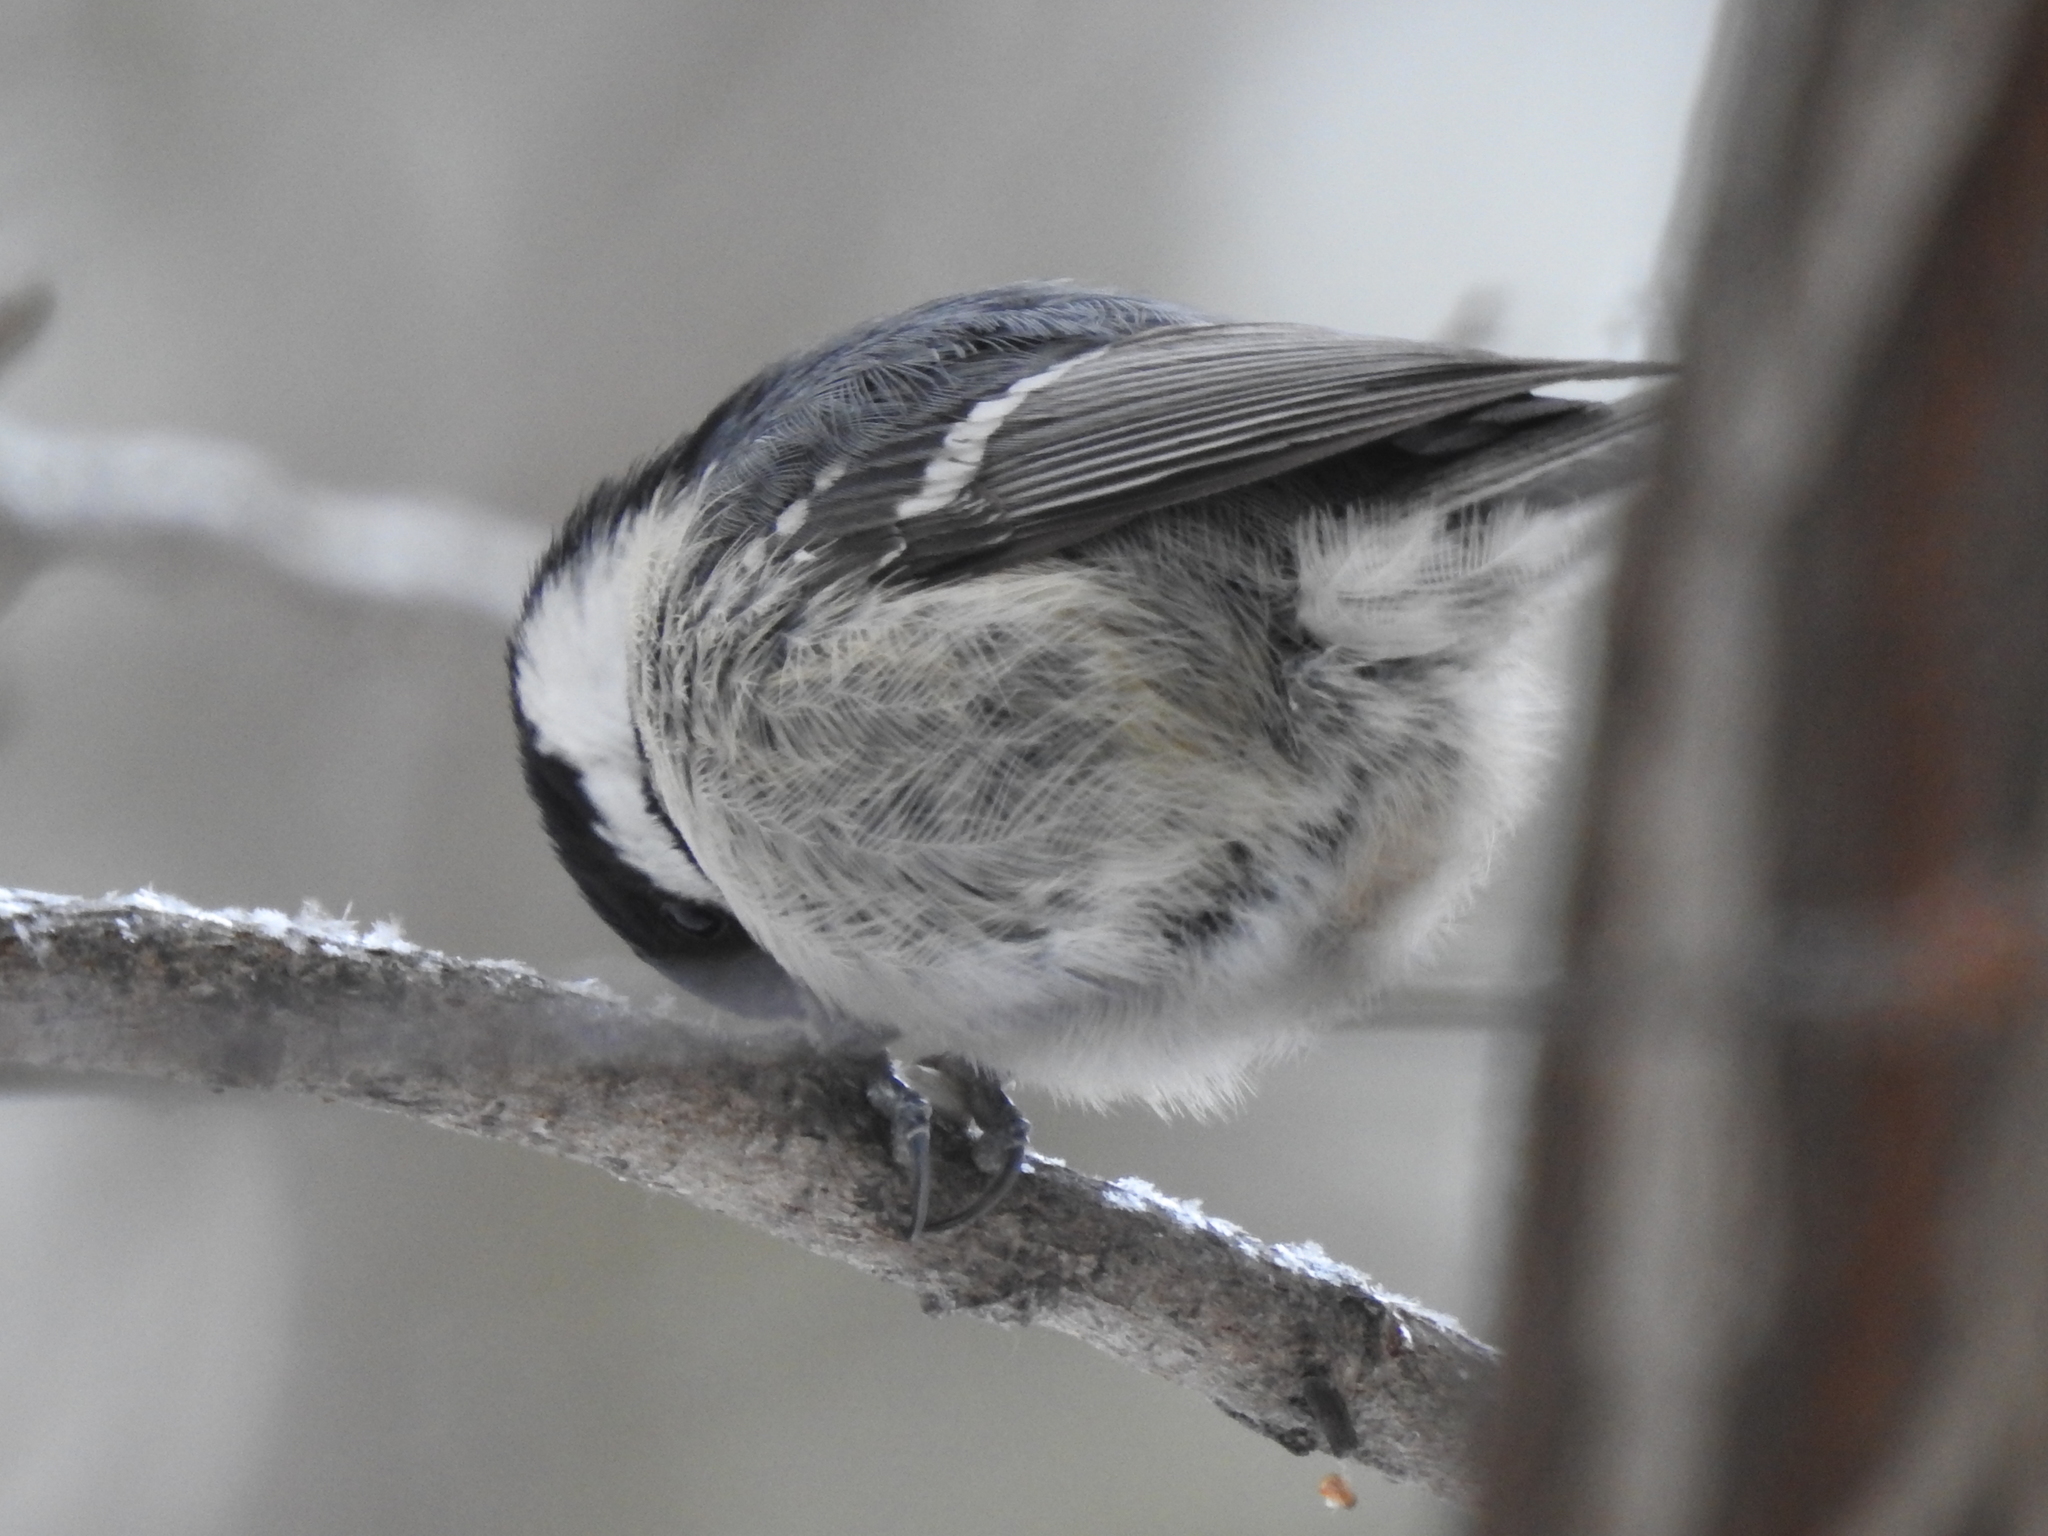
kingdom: Animalia
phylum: Chordata
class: Aves
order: Passeriformes
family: Paridae
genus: Periparus
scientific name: Periparus ater
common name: Coal tit
